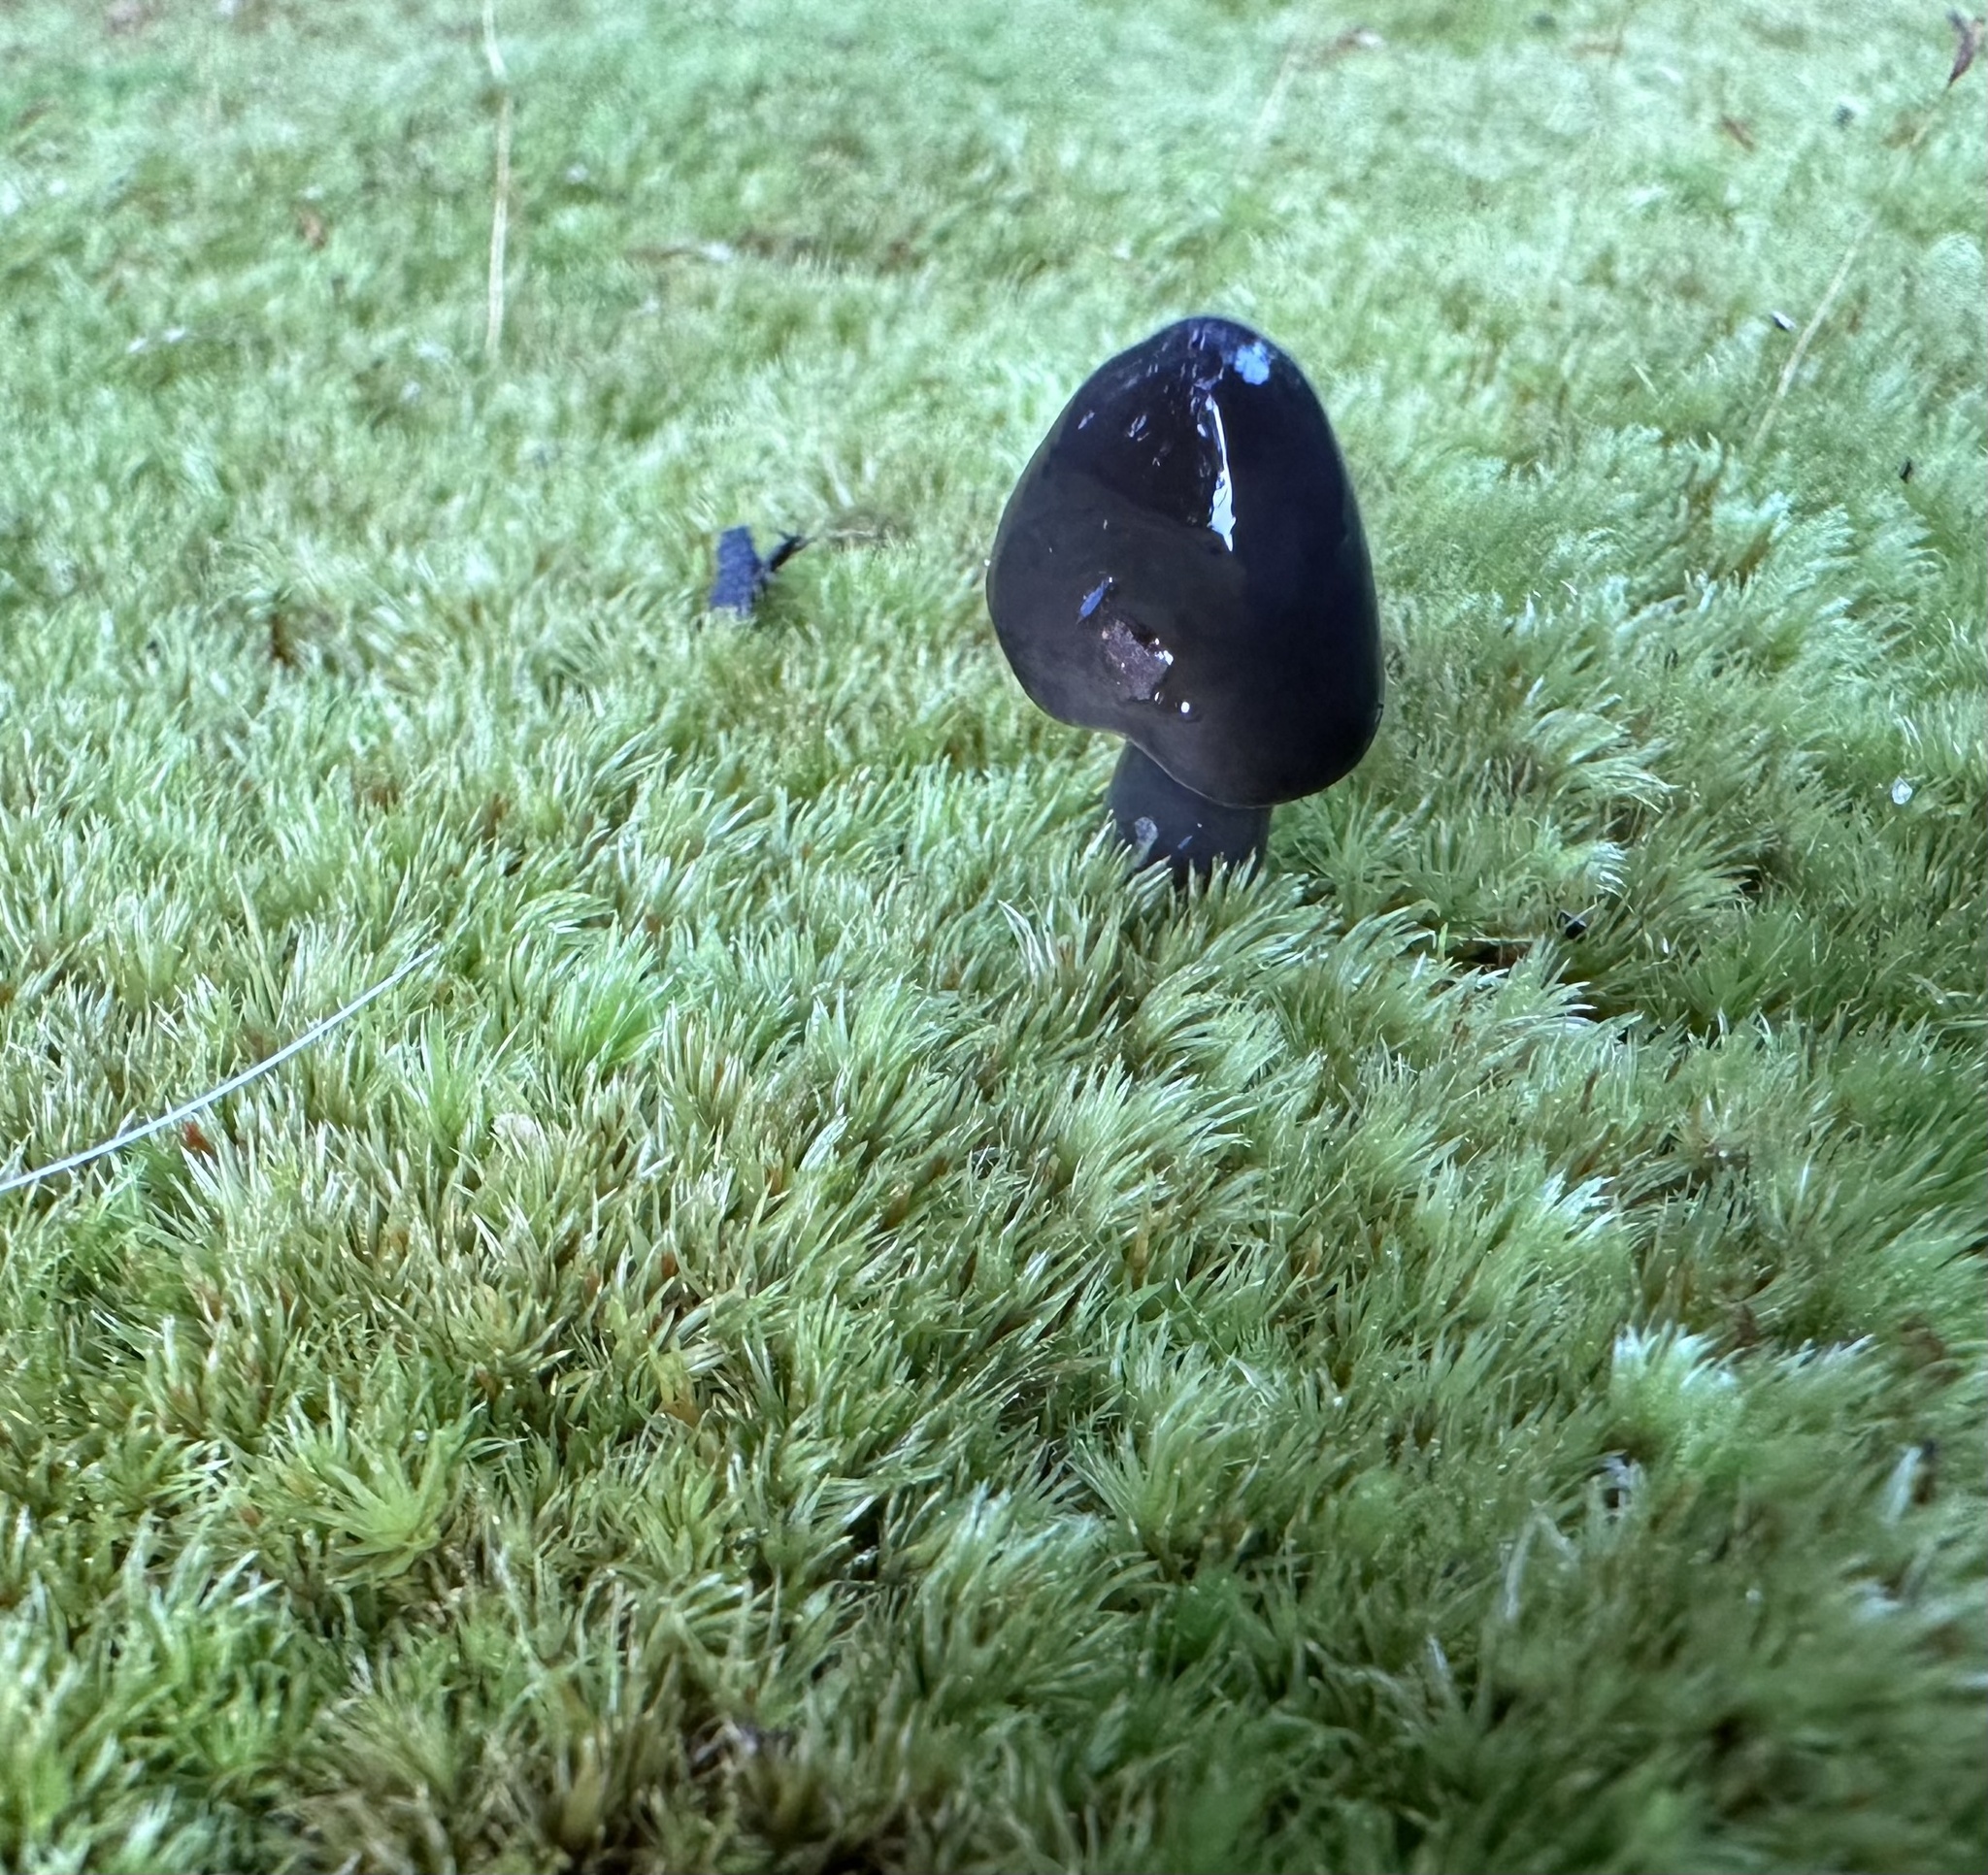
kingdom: Fungi
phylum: Basidiomycota
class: Agaricomycetes
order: Agaricales
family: Hygrophoraceae
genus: Gliophorus
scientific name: Gliophorus irrigatus
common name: Slimy waxcap
